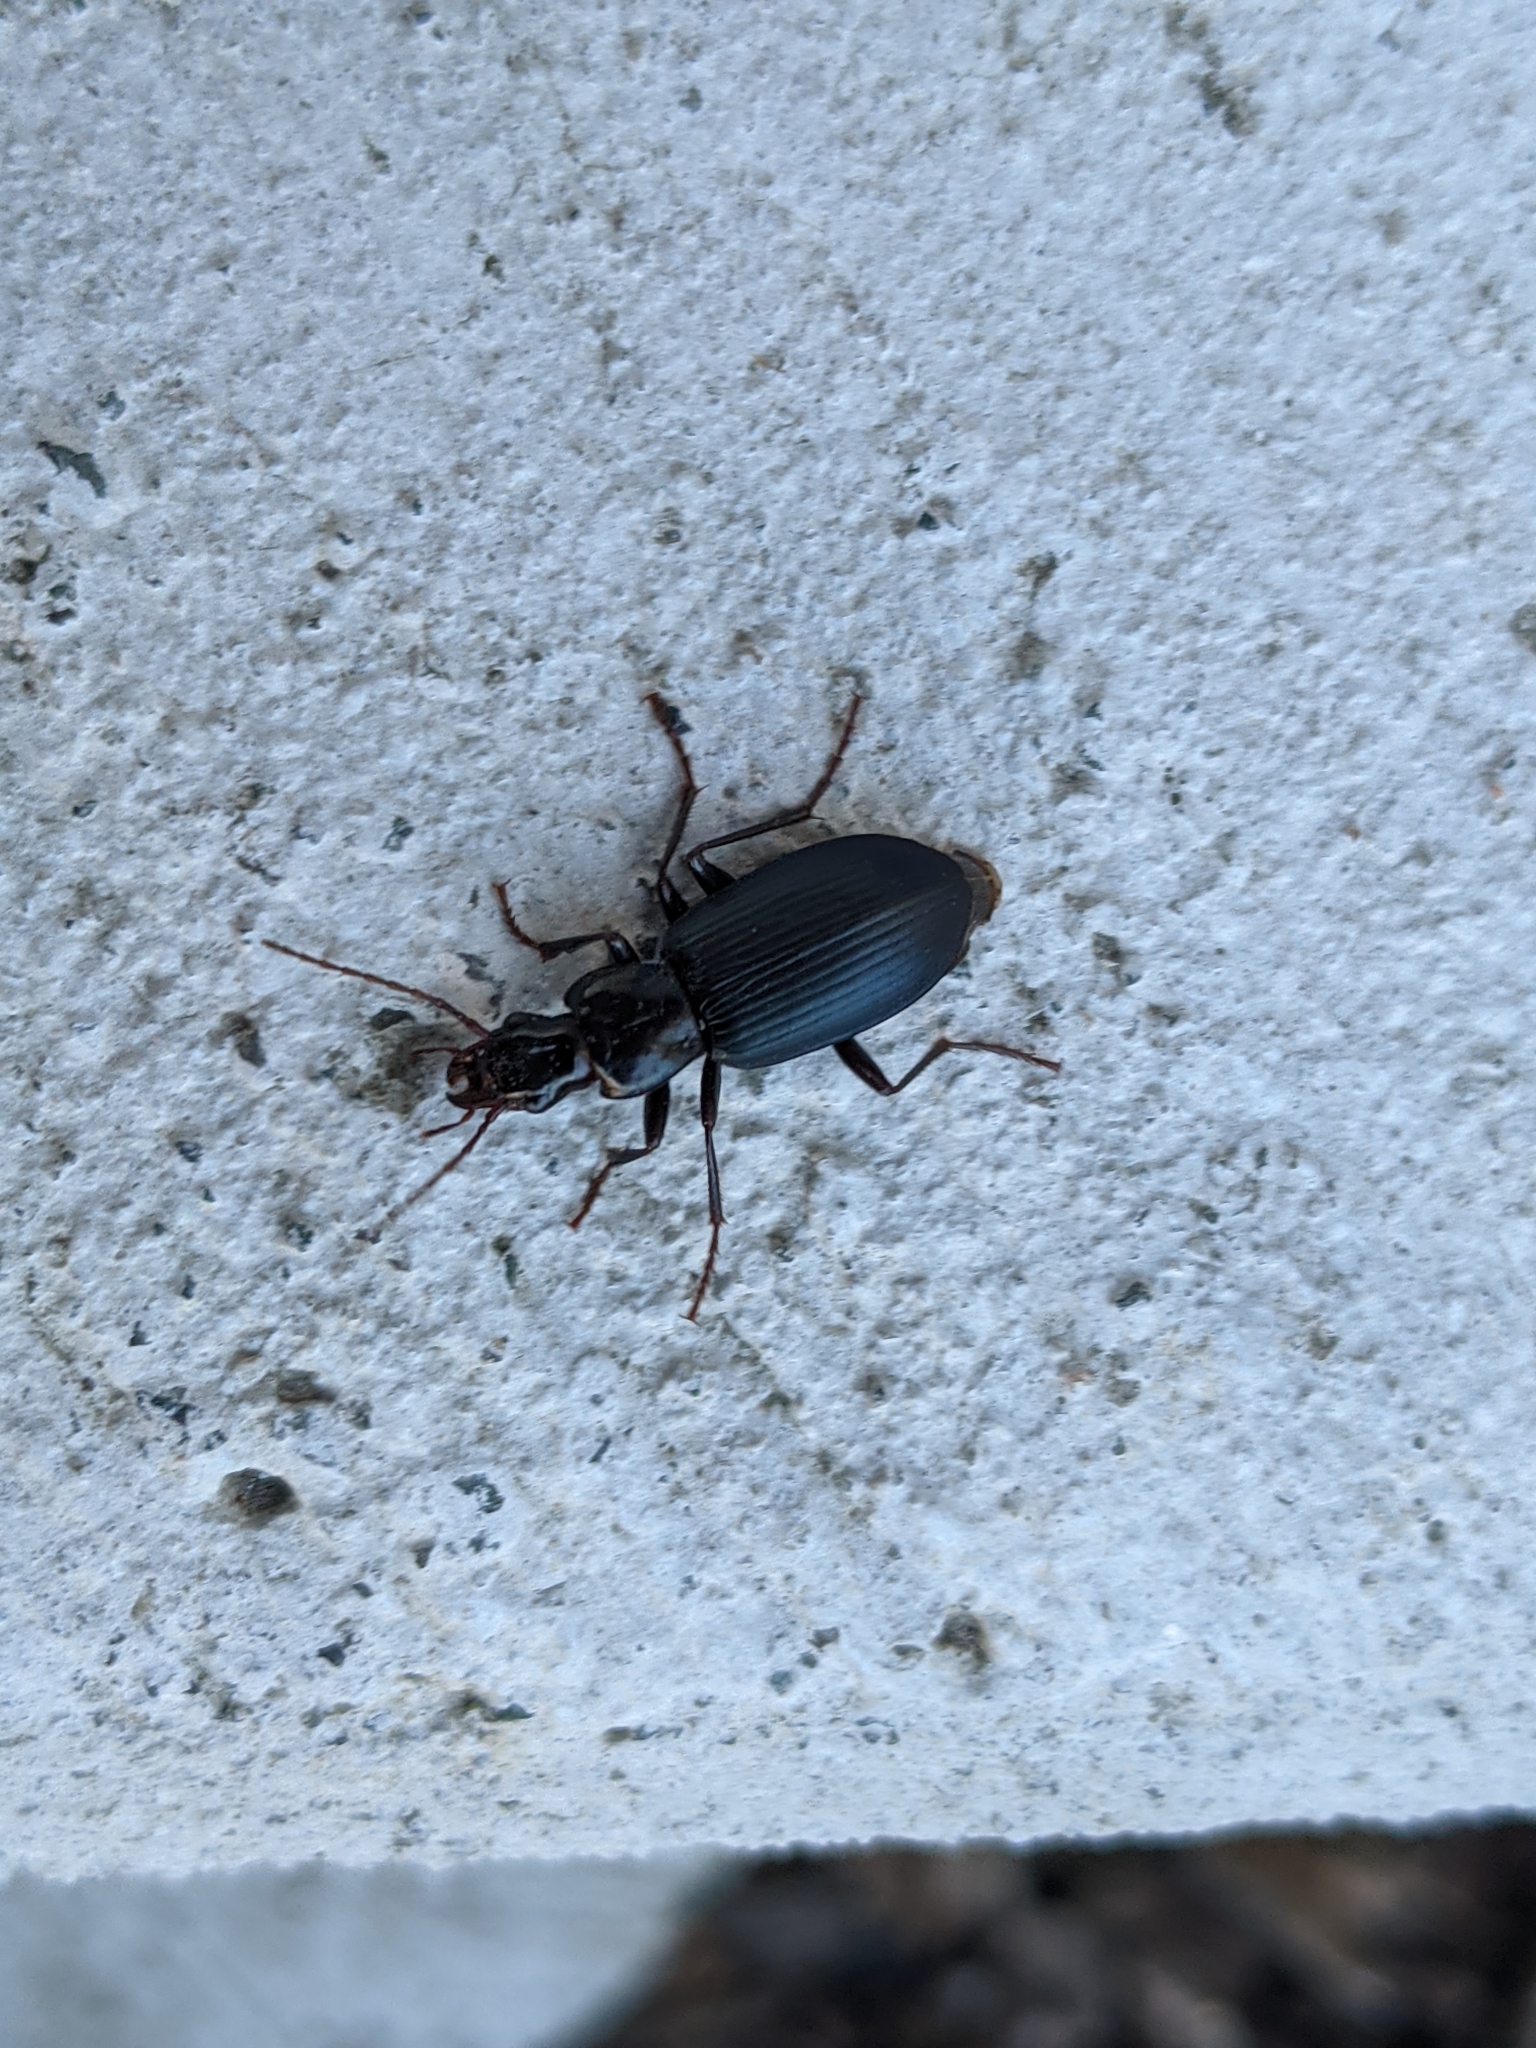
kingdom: Animalia
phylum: Arthropoda
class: Insecta
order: Coleoptera
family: Carabidae
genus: Laemostenus
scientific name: Laemostenus complanatus
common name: Cosmopolitan ground beetle
